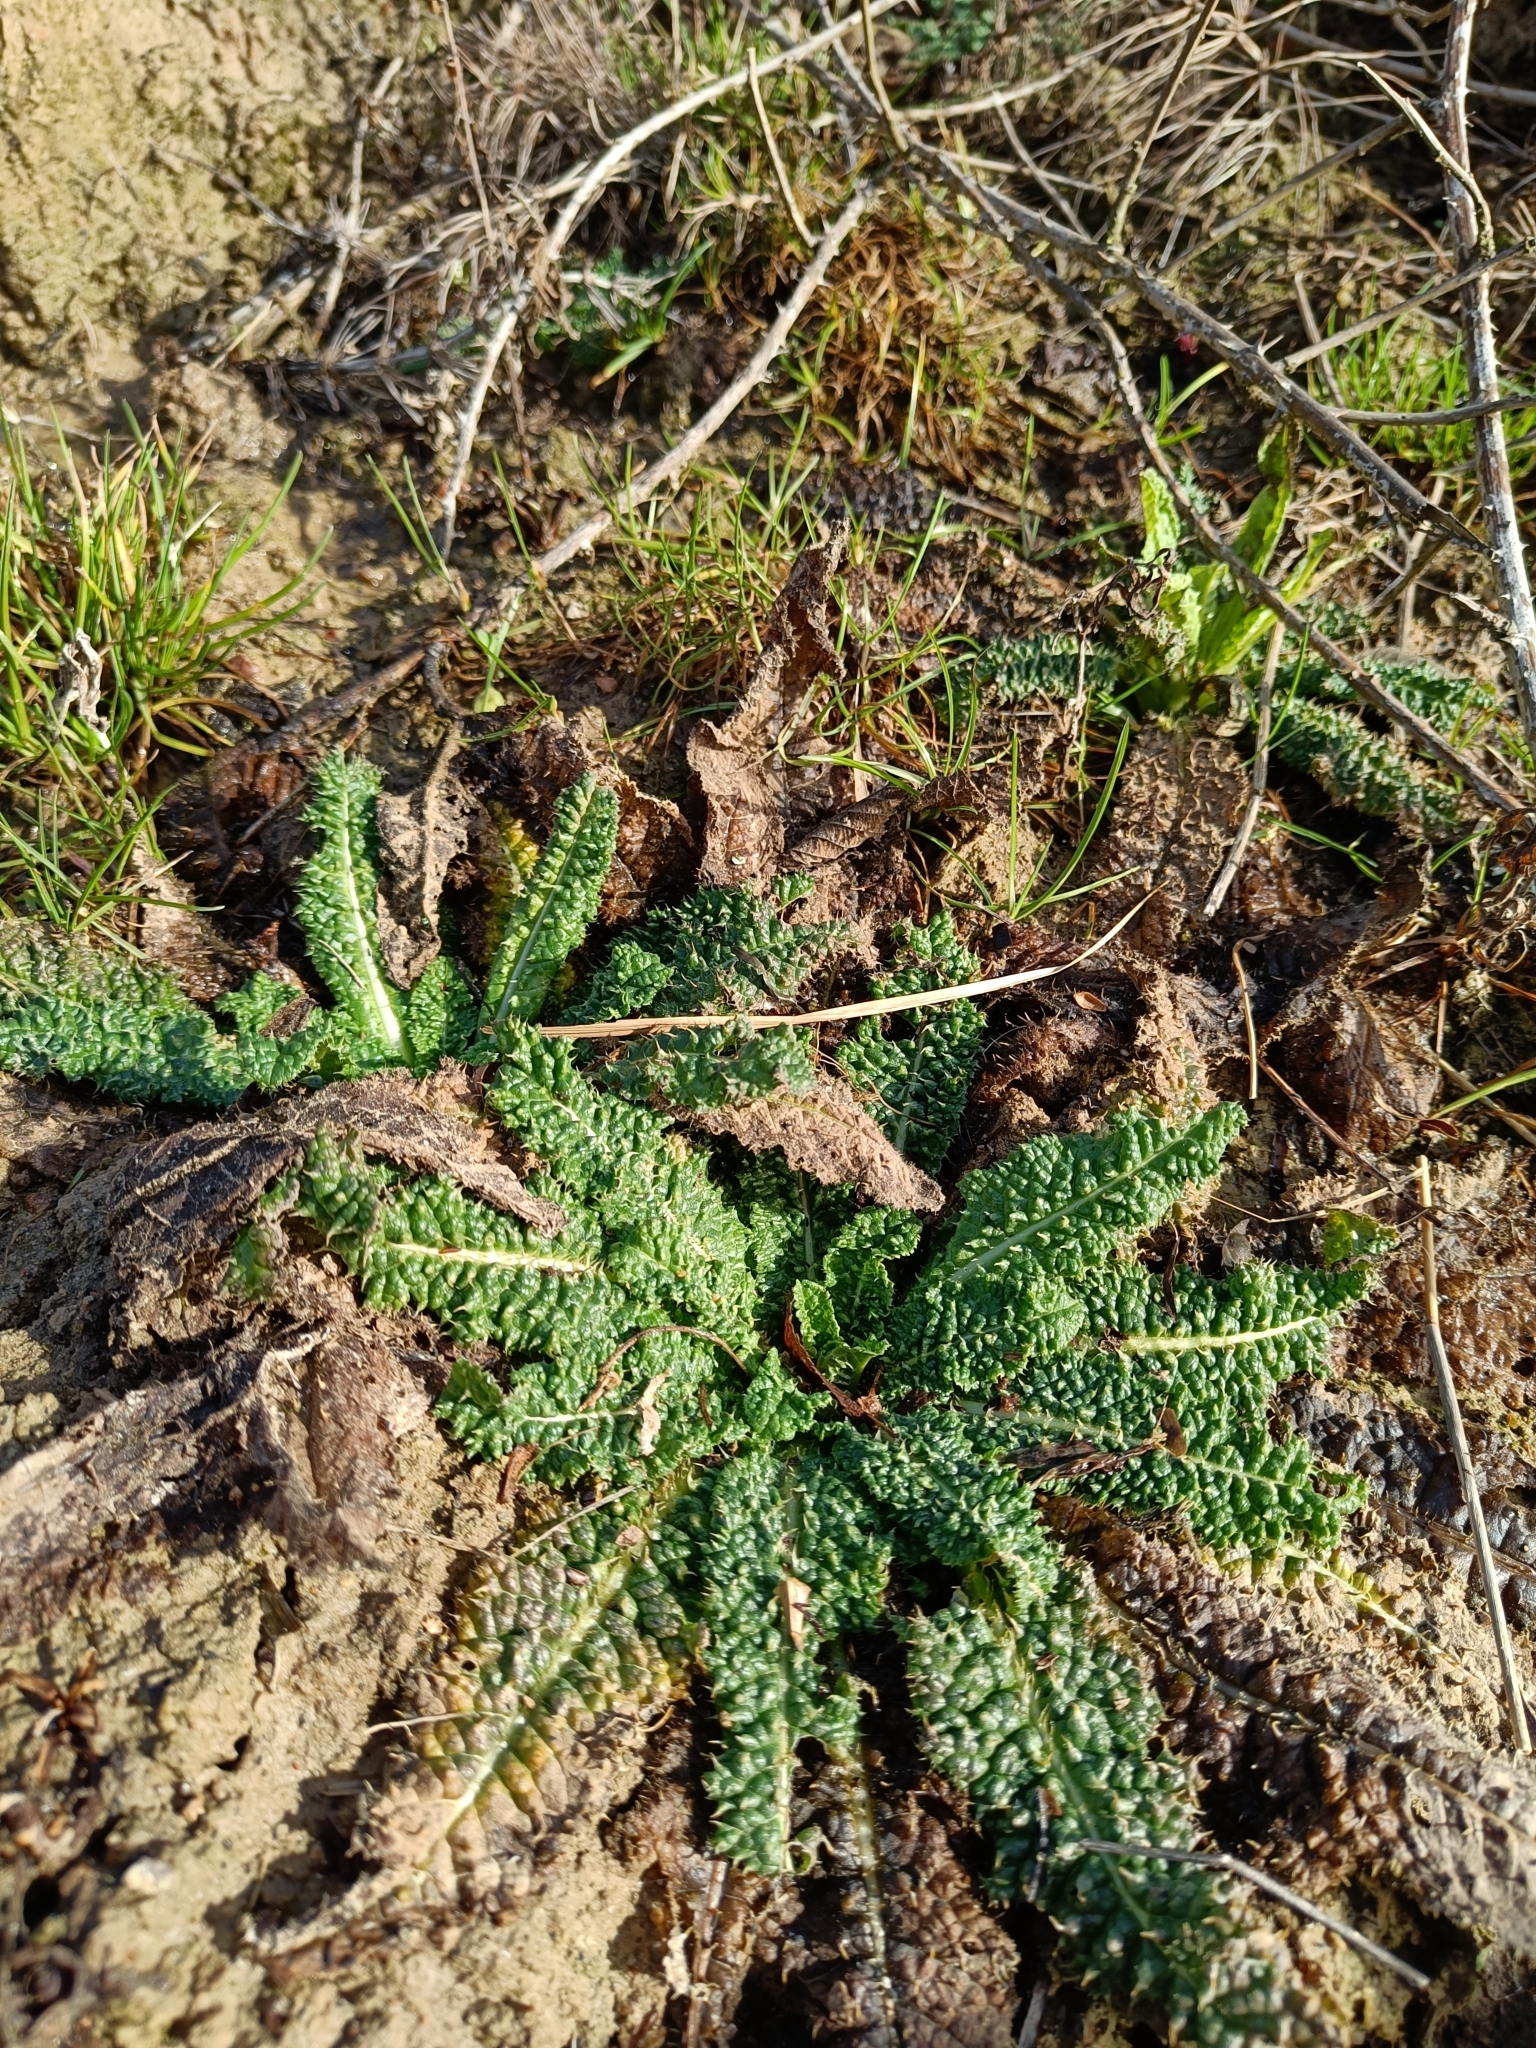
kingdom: Plantae
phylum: Tracheophyta
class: Magnoliopsida
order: Dipsacales
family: Caprifoliaceae
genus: Dipsacus
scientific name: Dipsacus fullonum
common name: Teasel
